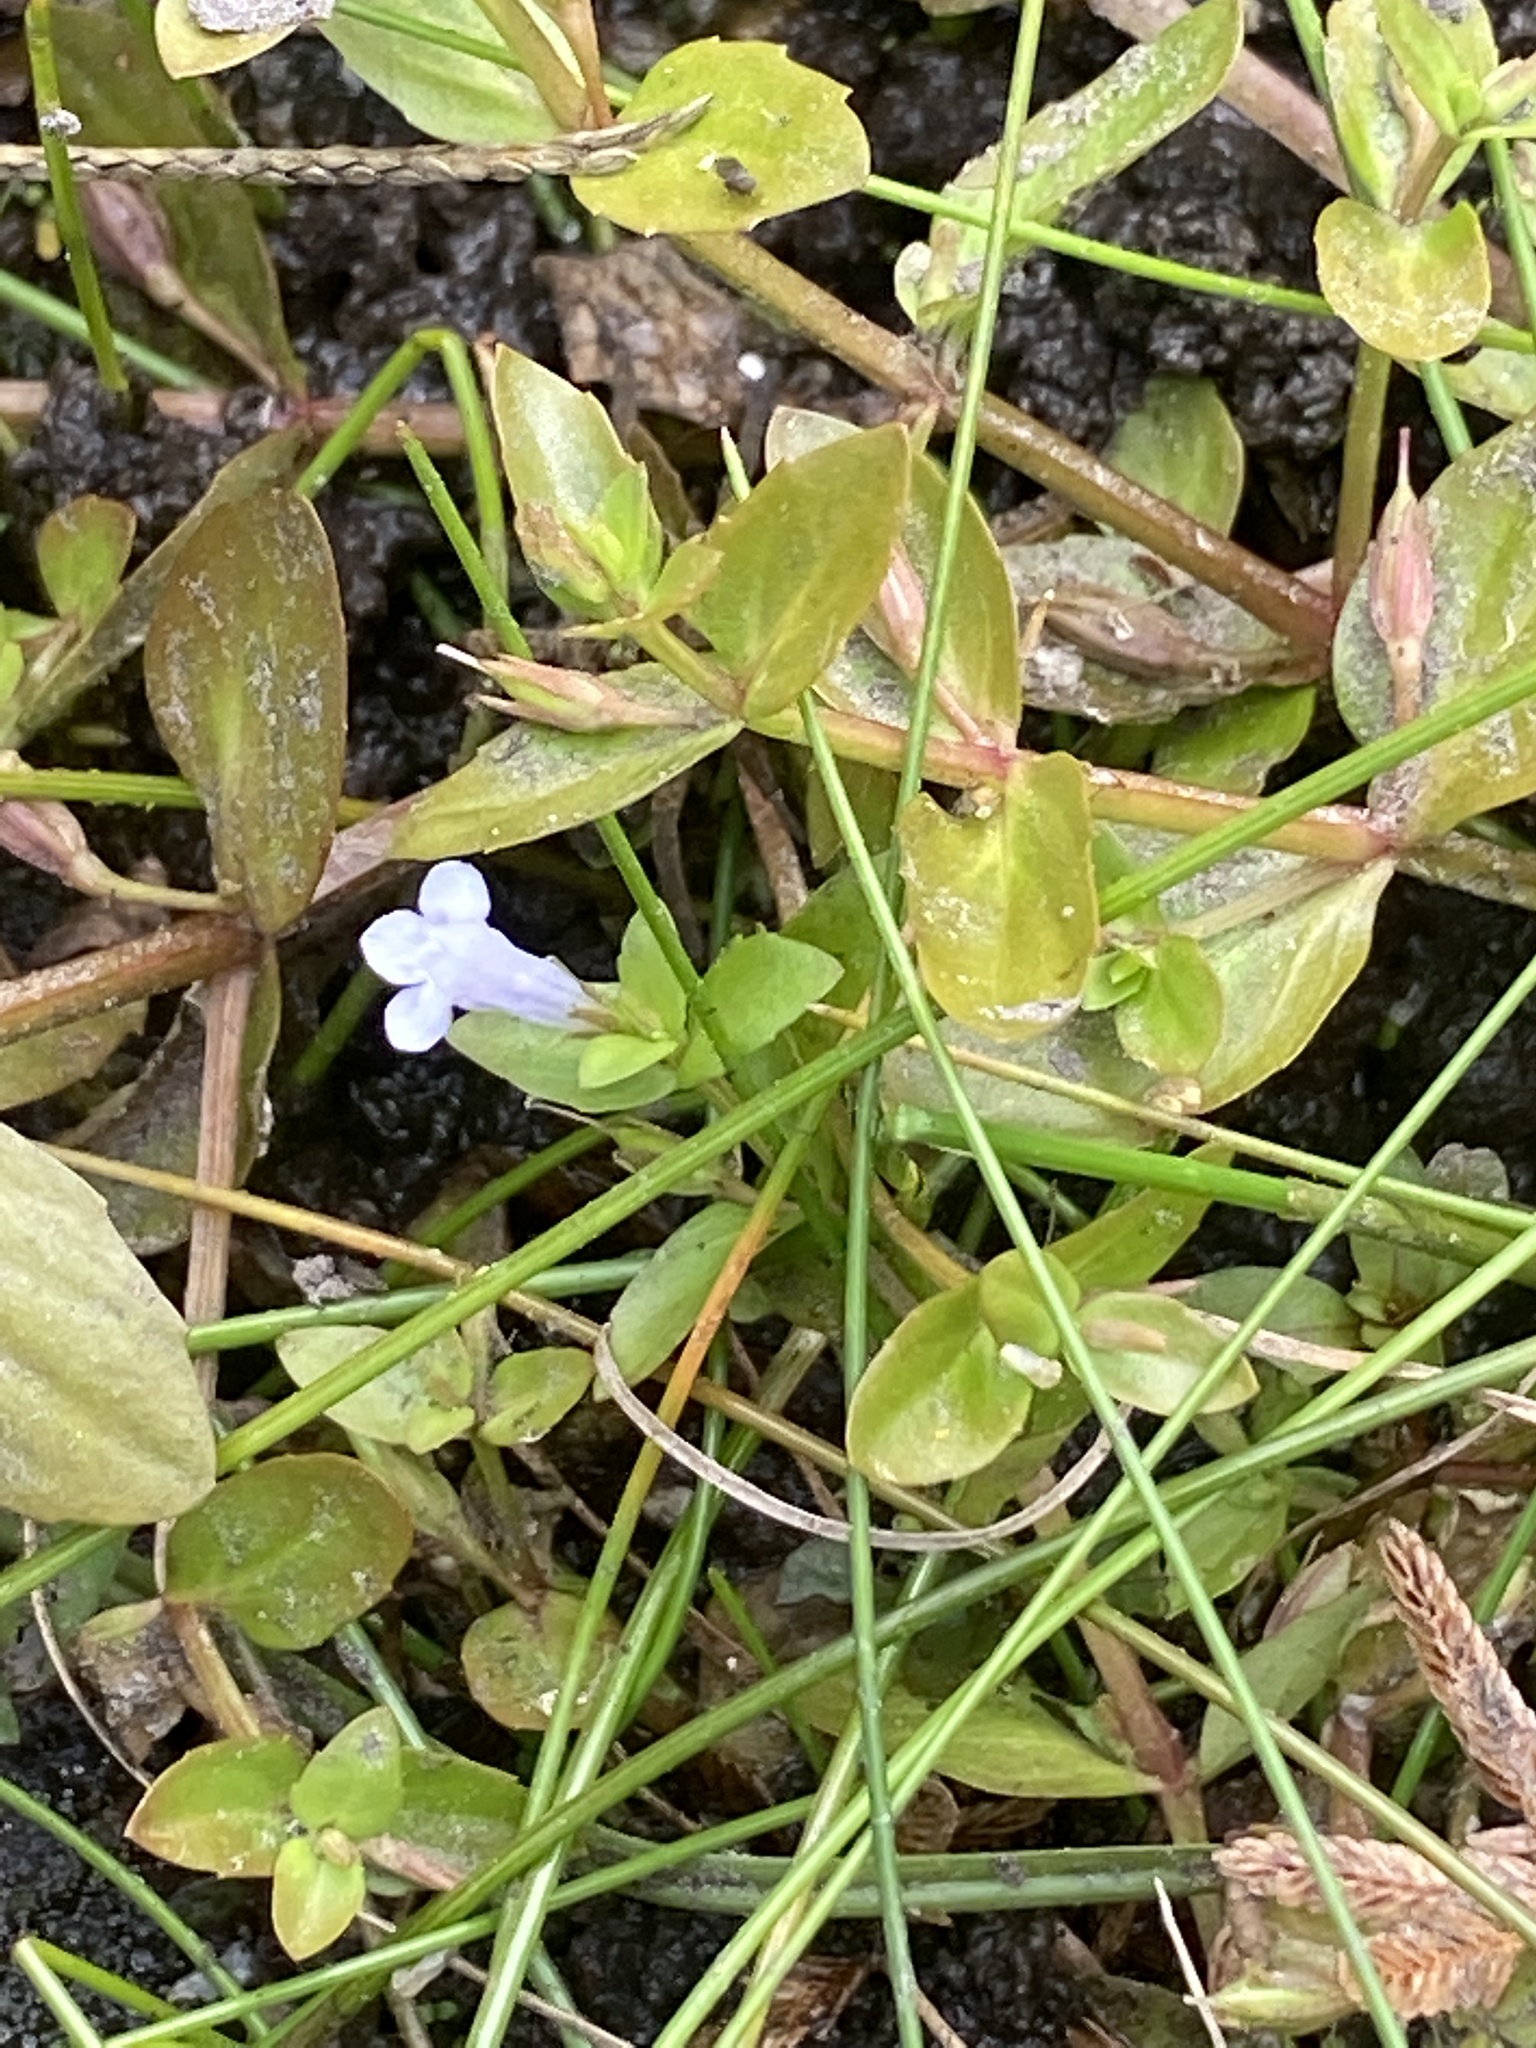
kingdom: Plantae
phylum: Tracheophyta
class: Magnoliopsida
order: Lamiales
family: Linderniaceae
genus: Lindernia
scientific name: Lindernia dubia
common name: Annual false pimpernel
